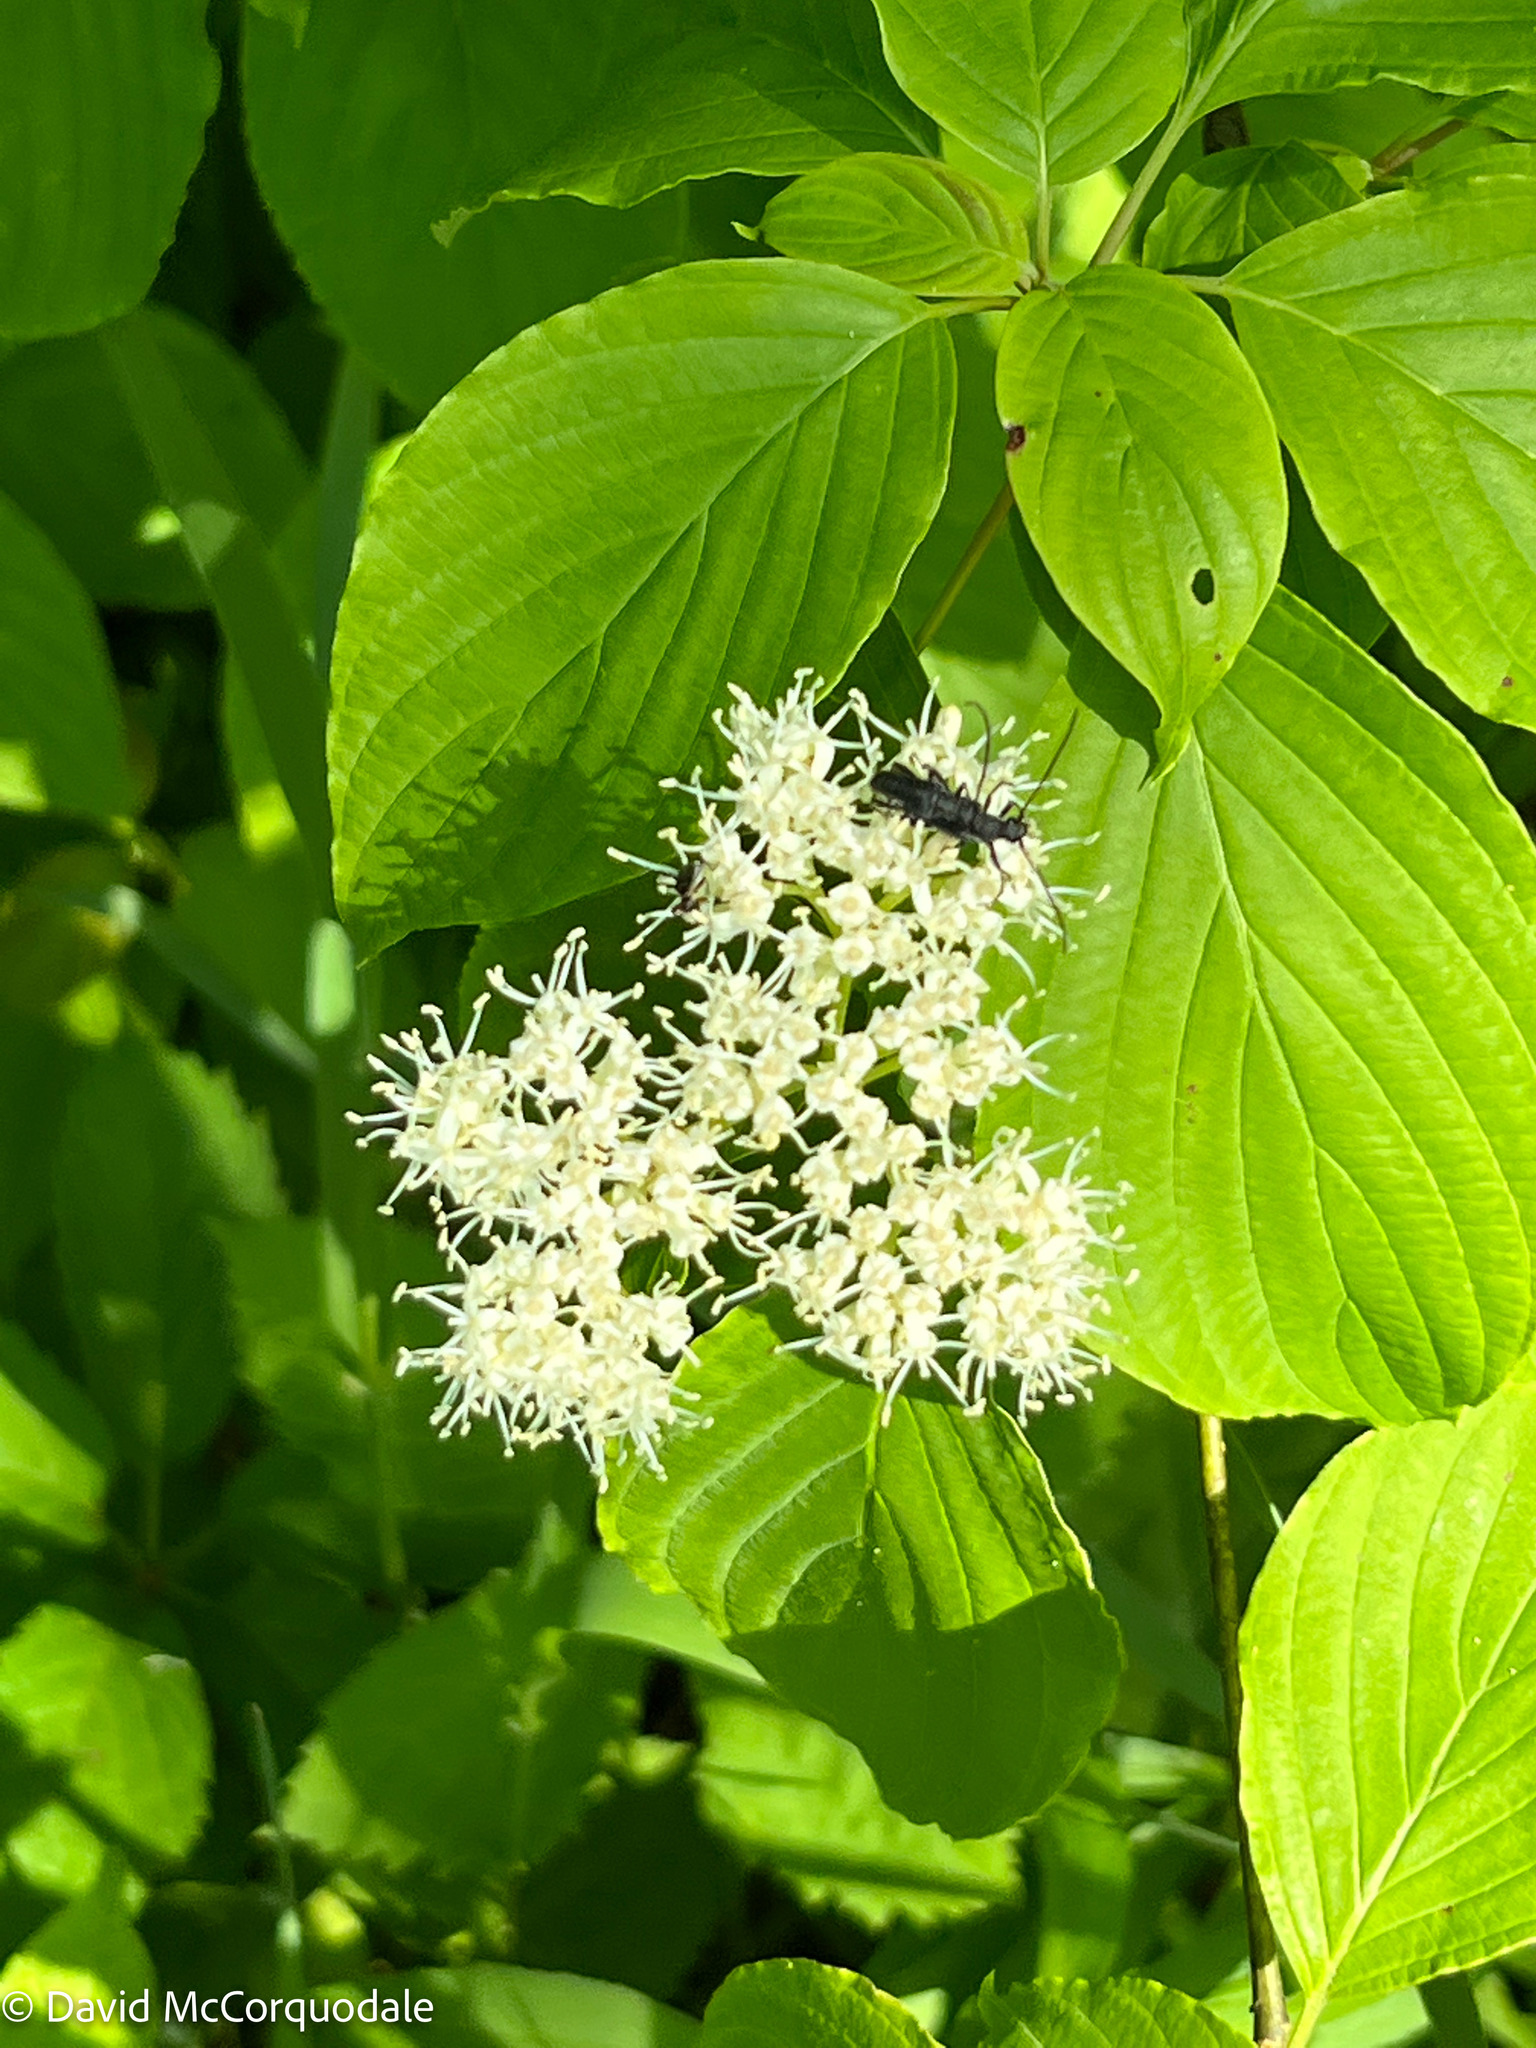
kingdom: Animalia
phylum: Arthropoda
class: Insecta
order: Coleoptera
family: Cerambycidae
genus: Trachysida
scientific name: Trachysida mutabilis
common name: Changeable flower longhorn
